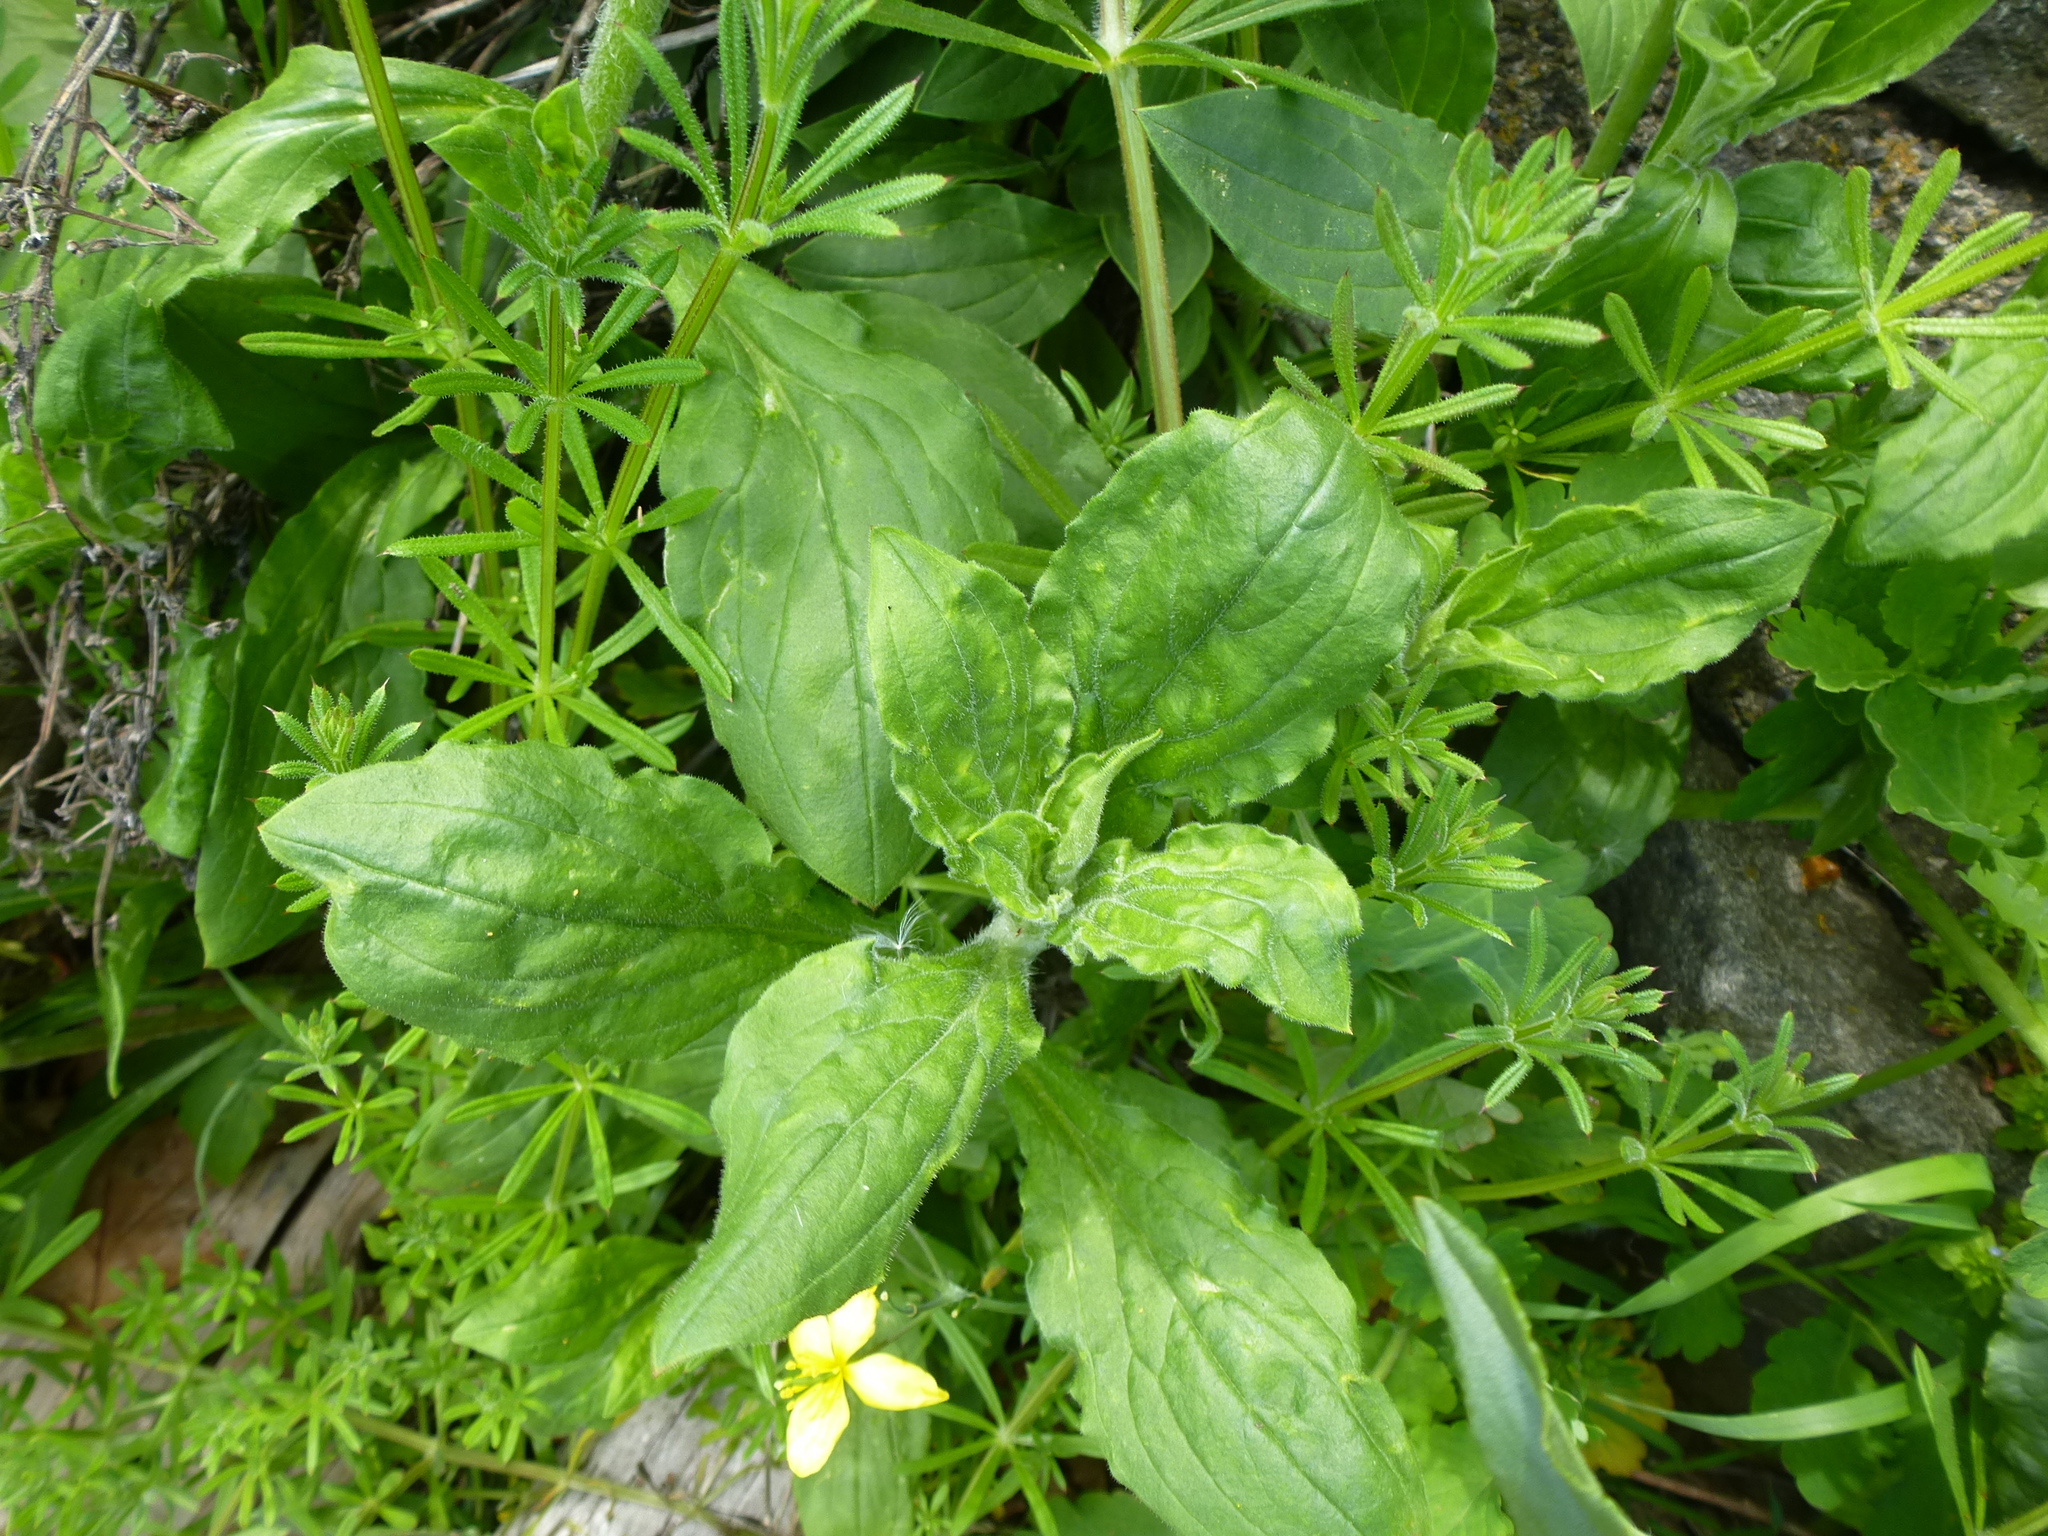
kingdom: Plantae
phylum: Tracheophyta
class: Magnoliopsida
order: Caryophyllales
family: Caryophyllaceae
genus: Silene
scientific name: Silene latifolia
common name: White campion
